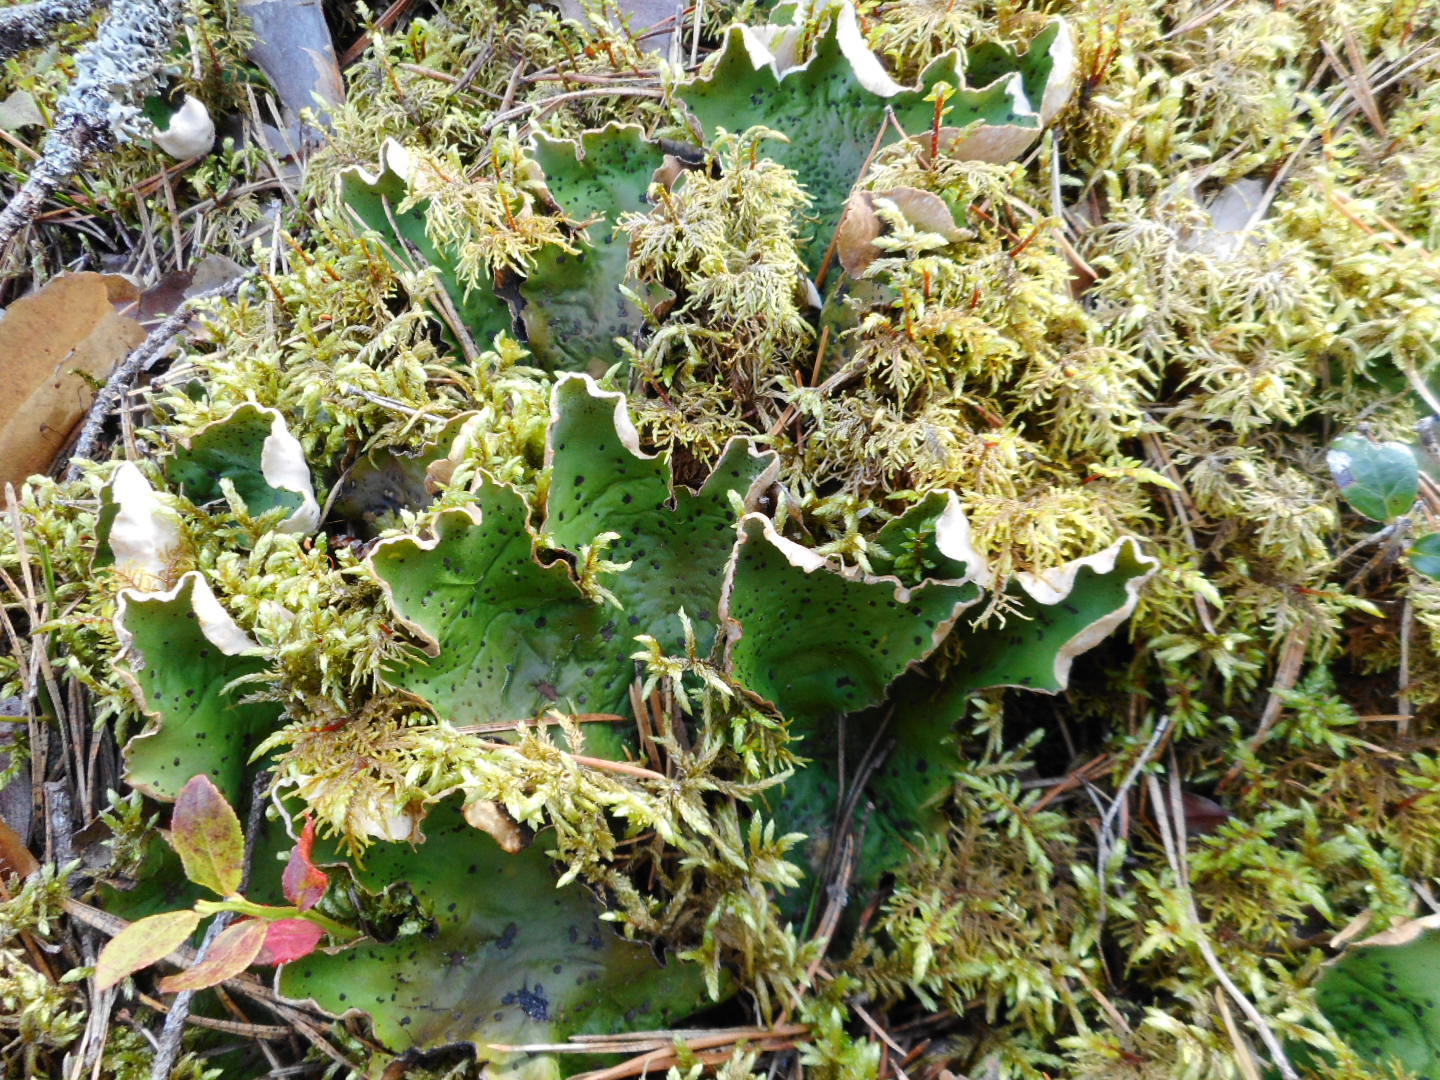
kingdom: Fungi
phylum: Ascomycota
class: Lecanoromycetes
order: Peltigerales
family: Peltigeraceae
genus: Peltigera
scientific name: Peltigera aphthosa
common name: Common freckle pelt lichen
